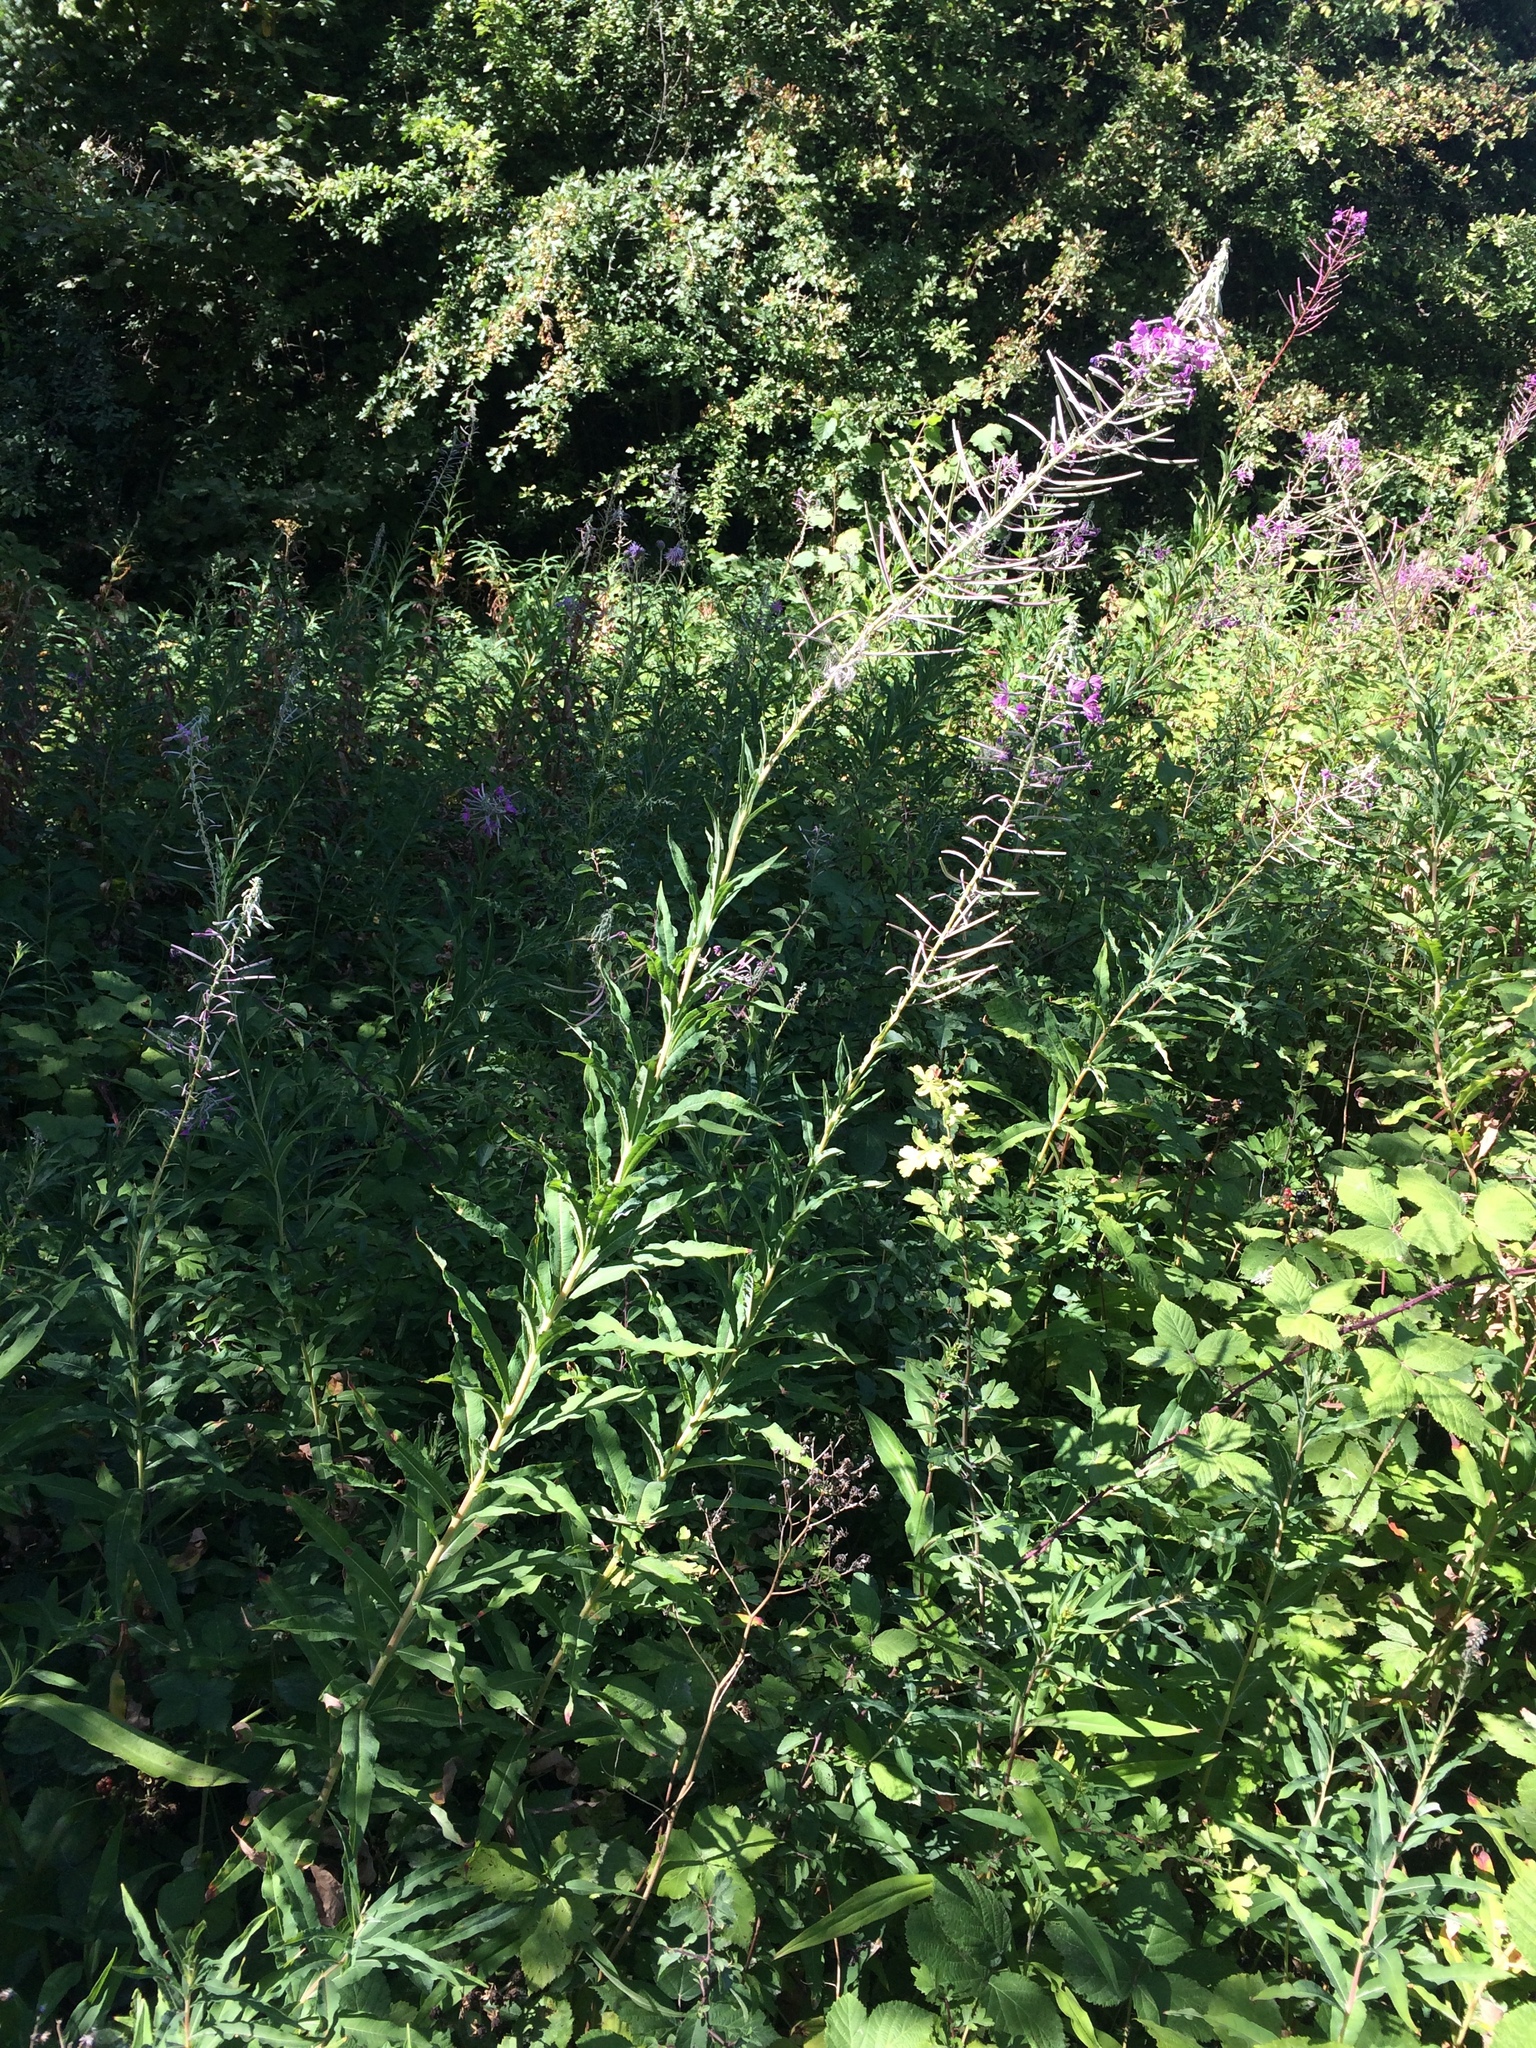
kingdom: Plantae
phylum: Tracheophyta
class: Magnoliopsida
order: Myrtales
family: Onagraceae
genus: Chamaenerion
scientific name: Chamaenerion angustifolium
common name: Fireweed
